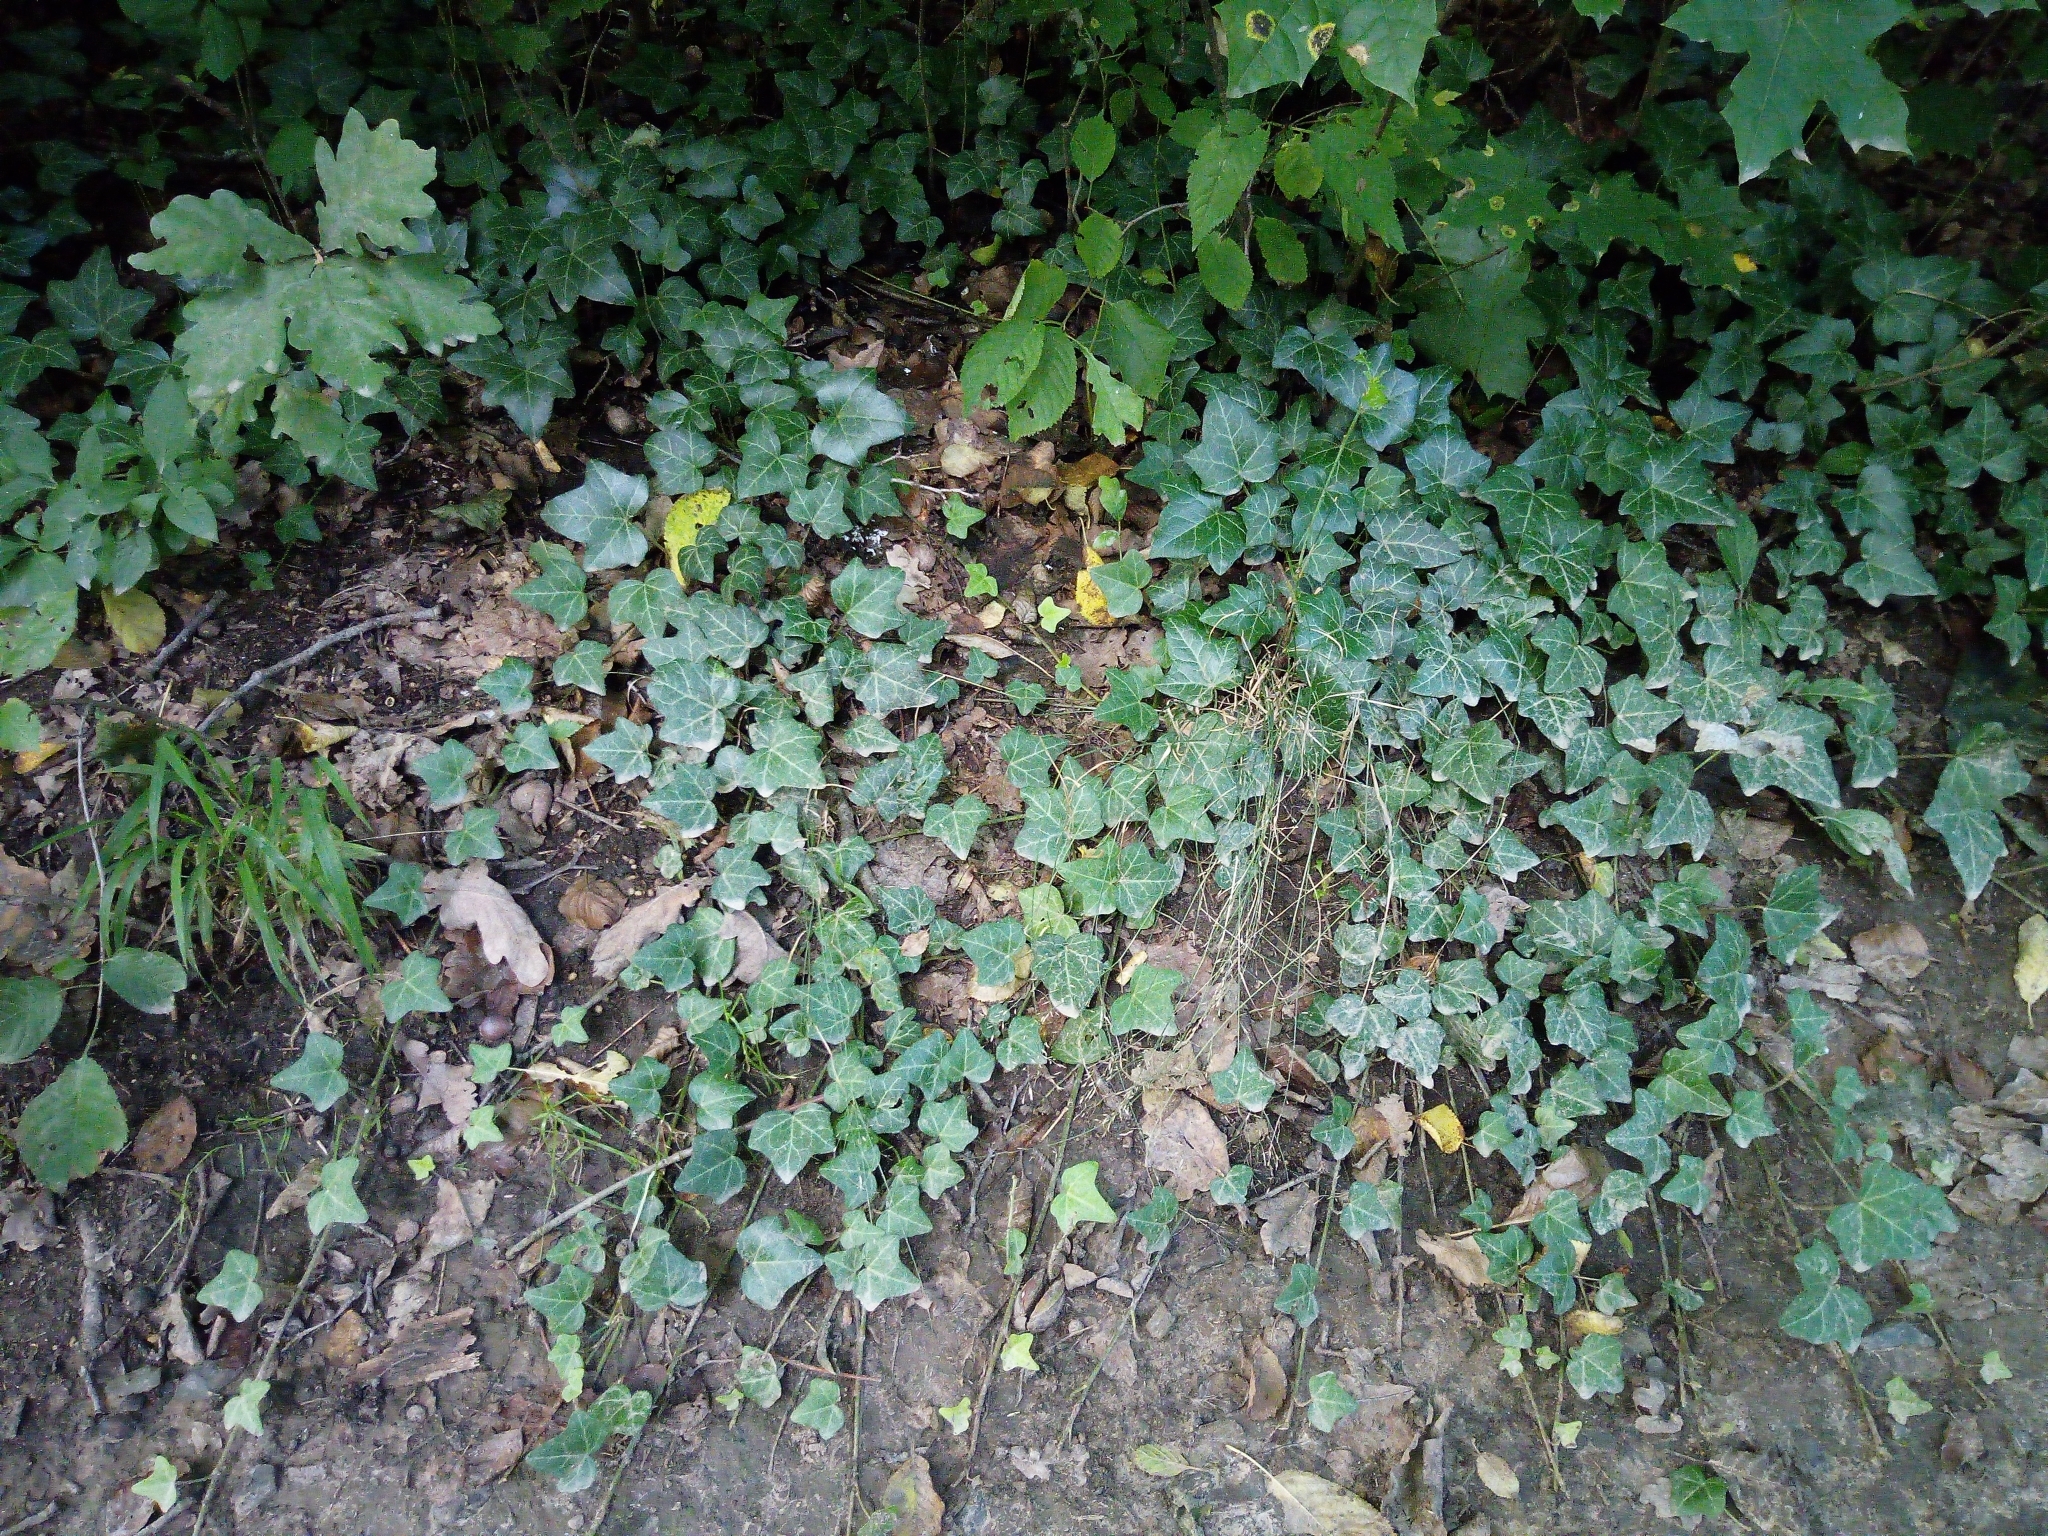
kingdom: Plantae
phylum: Tracheophyta
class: Magnoliopsida
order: Apiales
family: Araliaceae
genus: Hedera
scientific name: Hedera helix
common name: Ivy
